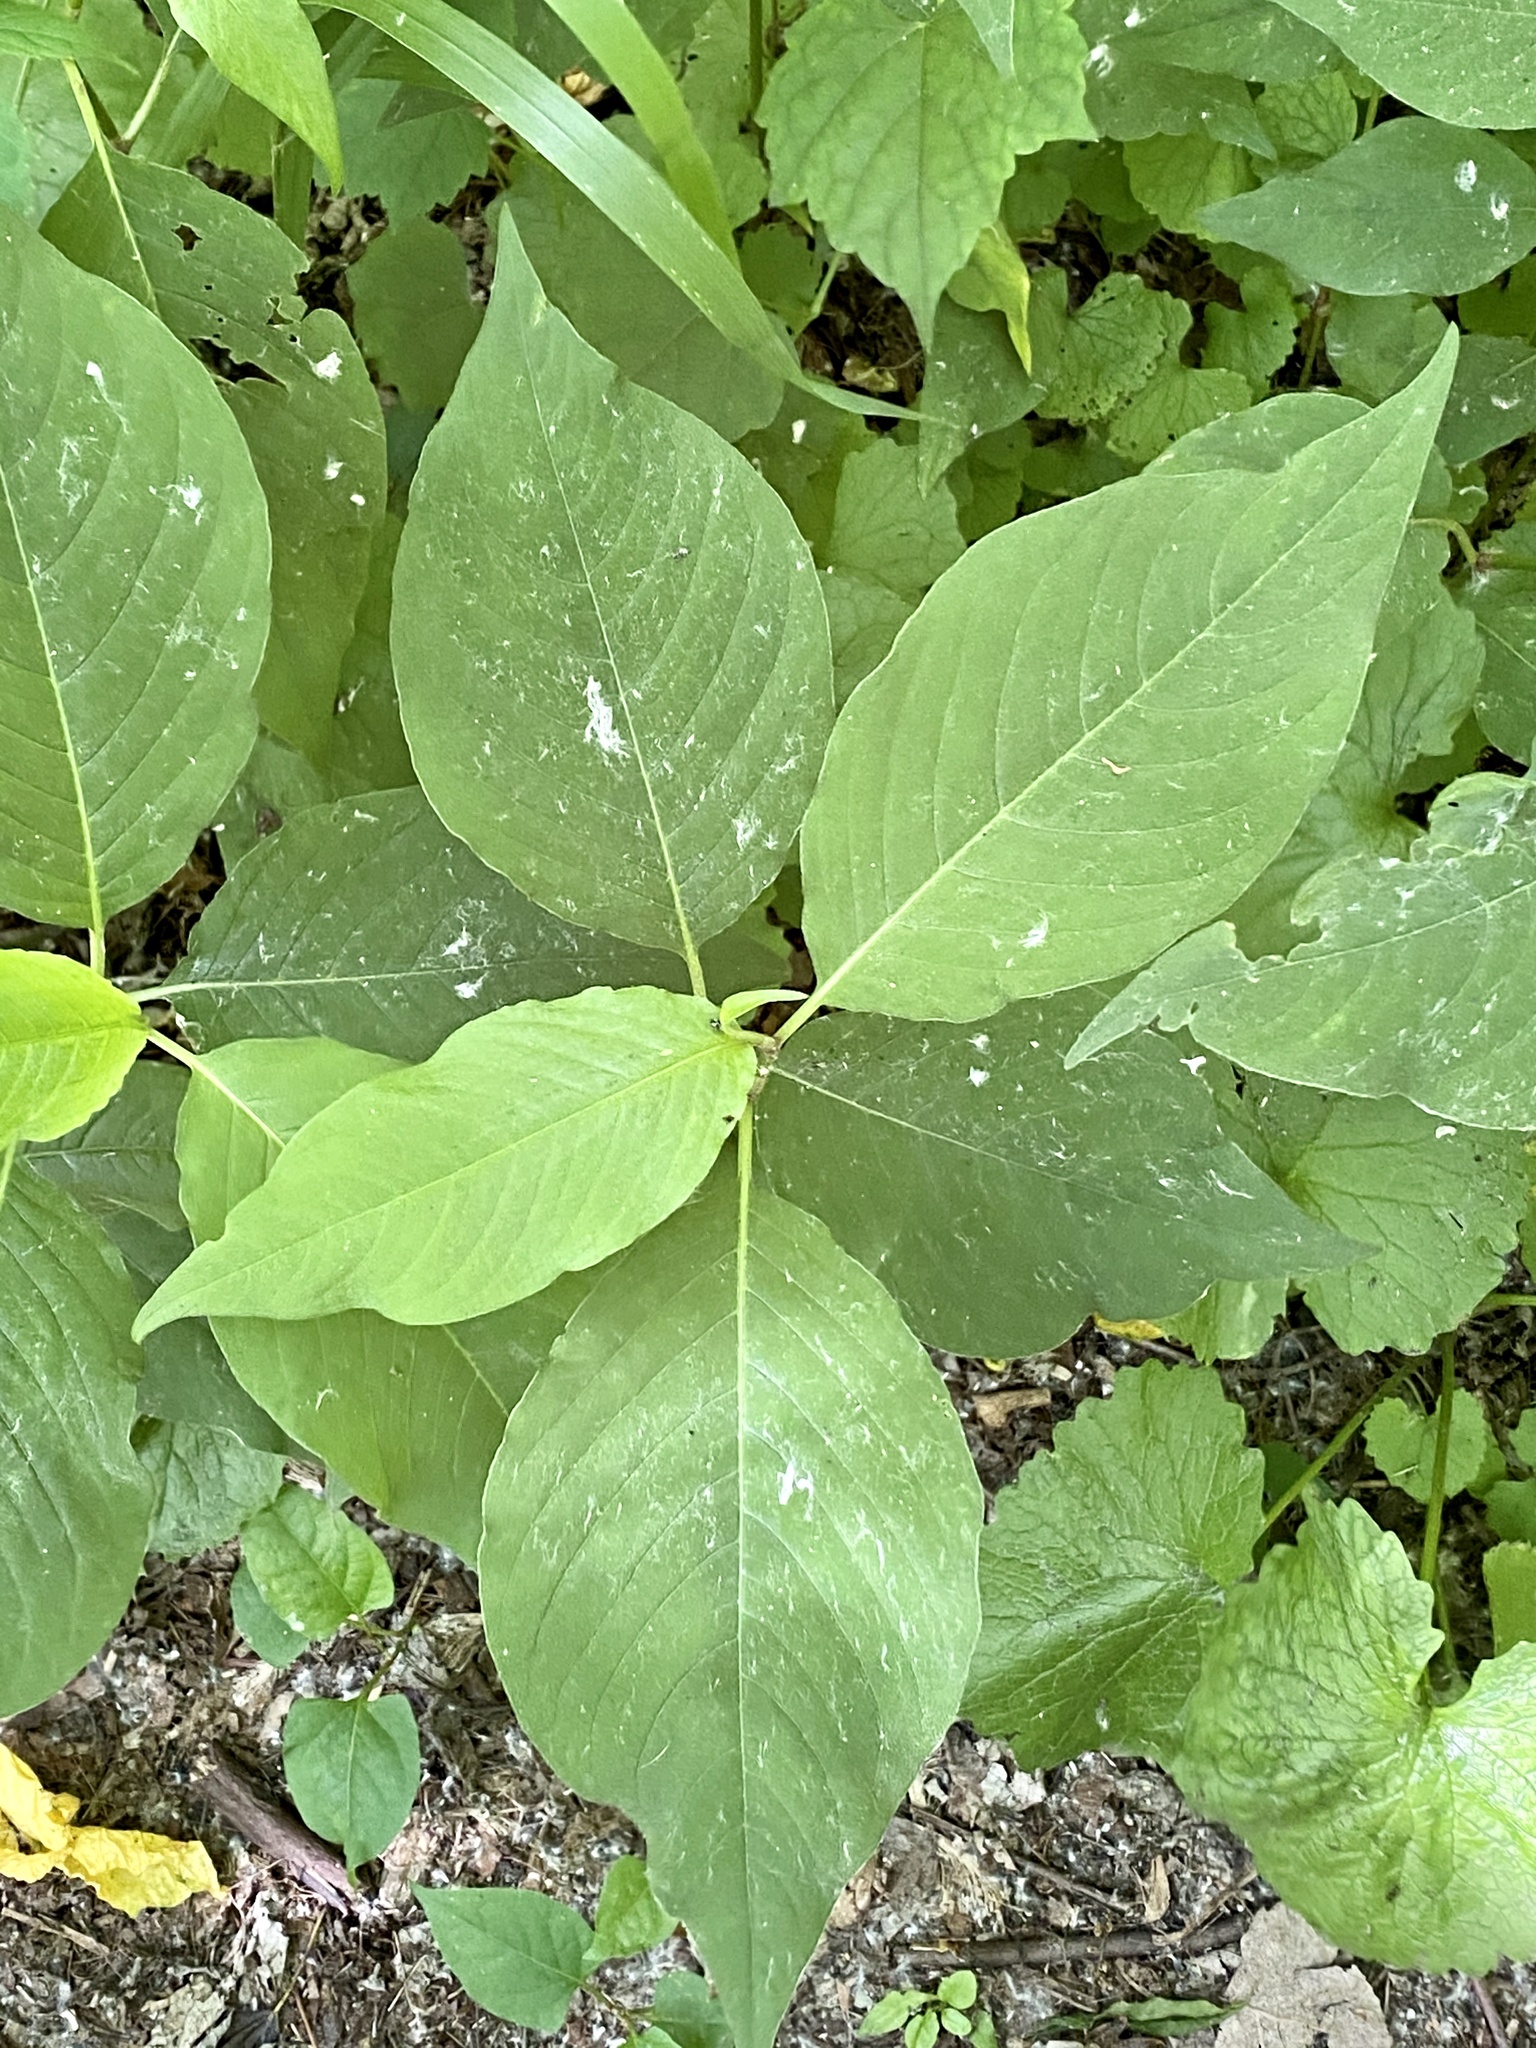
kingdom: Plantae
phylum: Tracheophyta
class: Magnoliopsida
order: Caryophyllales
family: Polygonaceae
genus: Persicaria
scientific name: Persicaria virginiana
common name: Jumpseed
